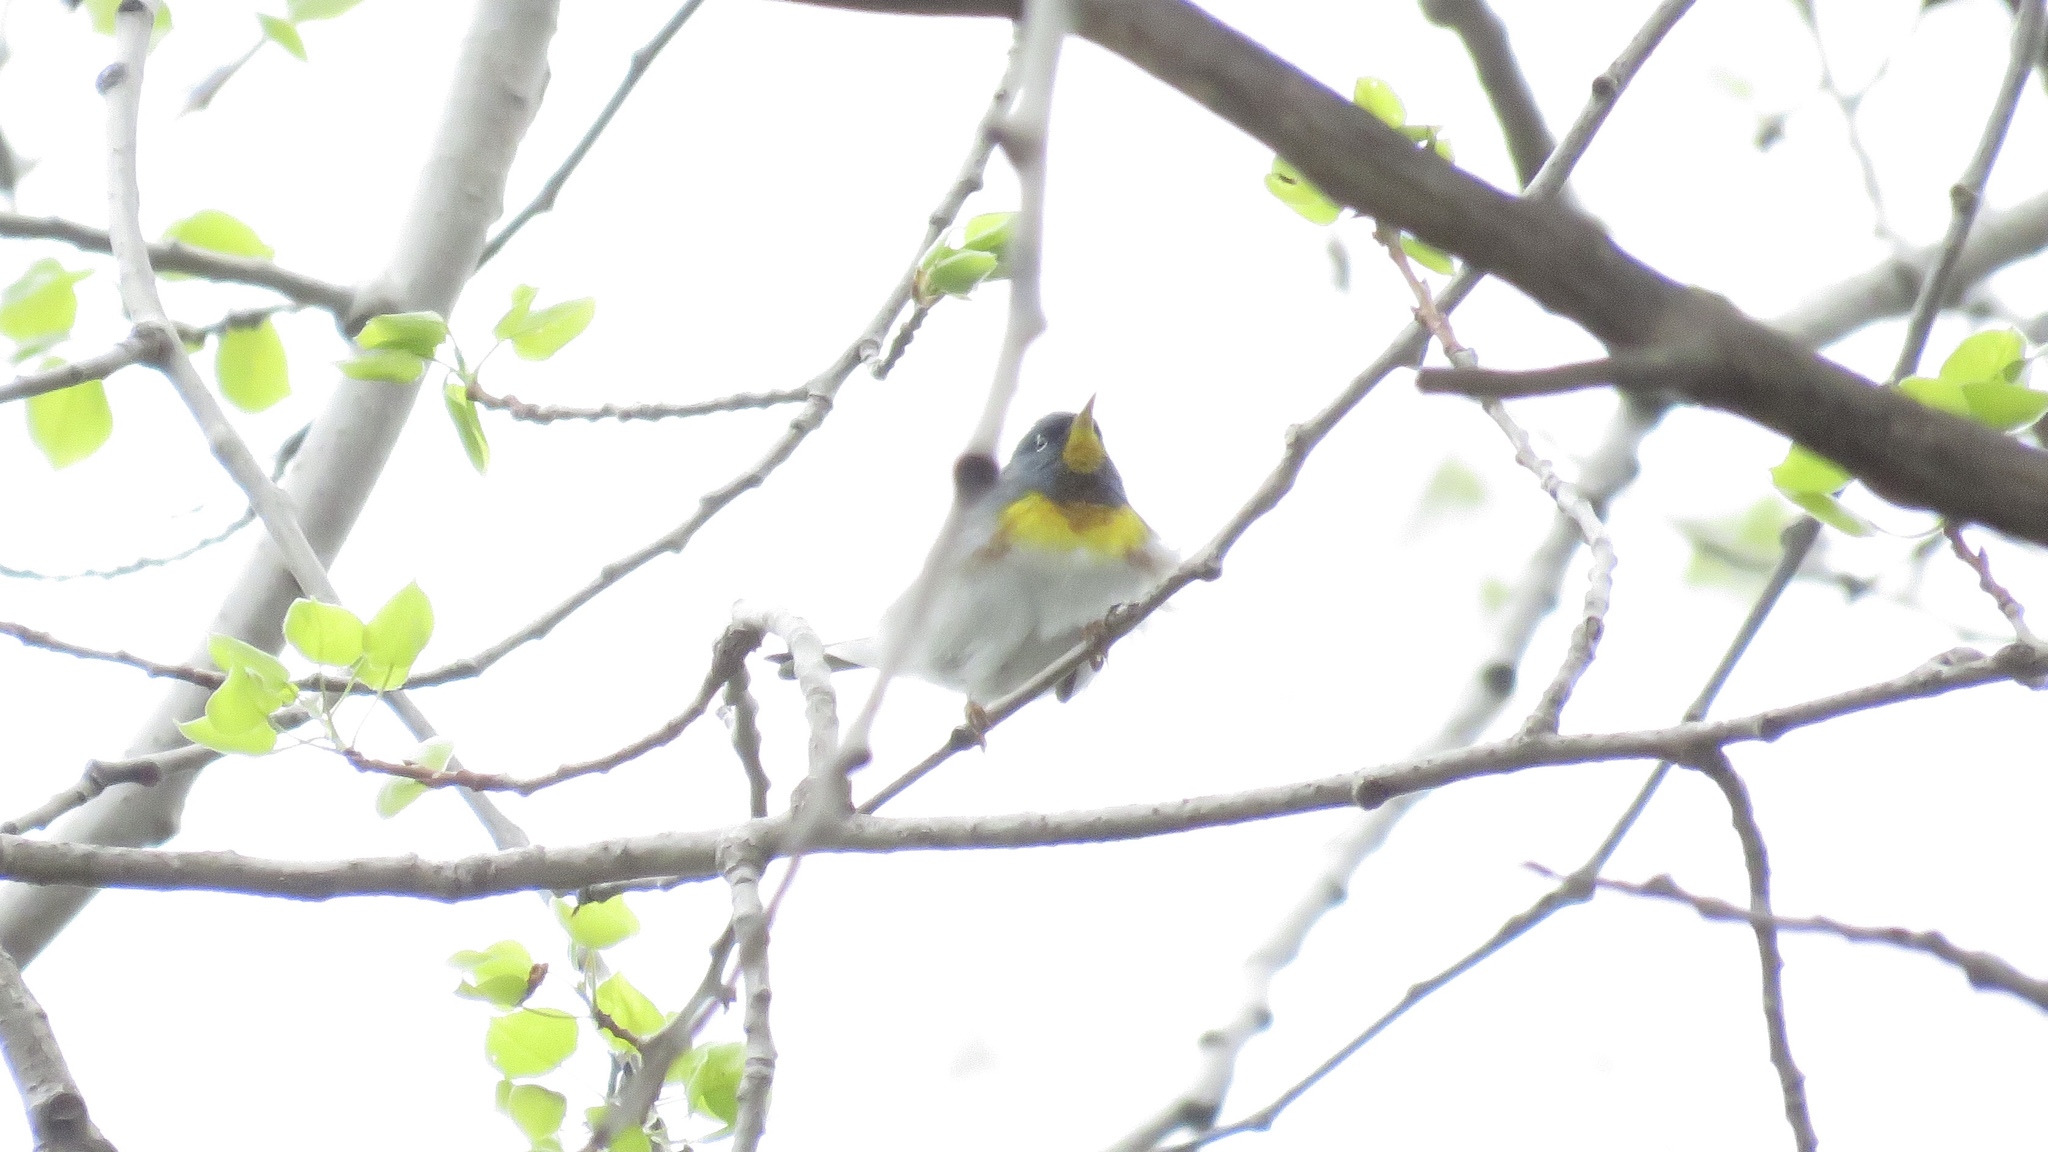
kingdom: Animalia
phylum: Chordata
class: Aves
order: Passeriformes
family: Parulidae
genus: Setophaga
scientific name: Setophaga americana
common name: Northern parula
